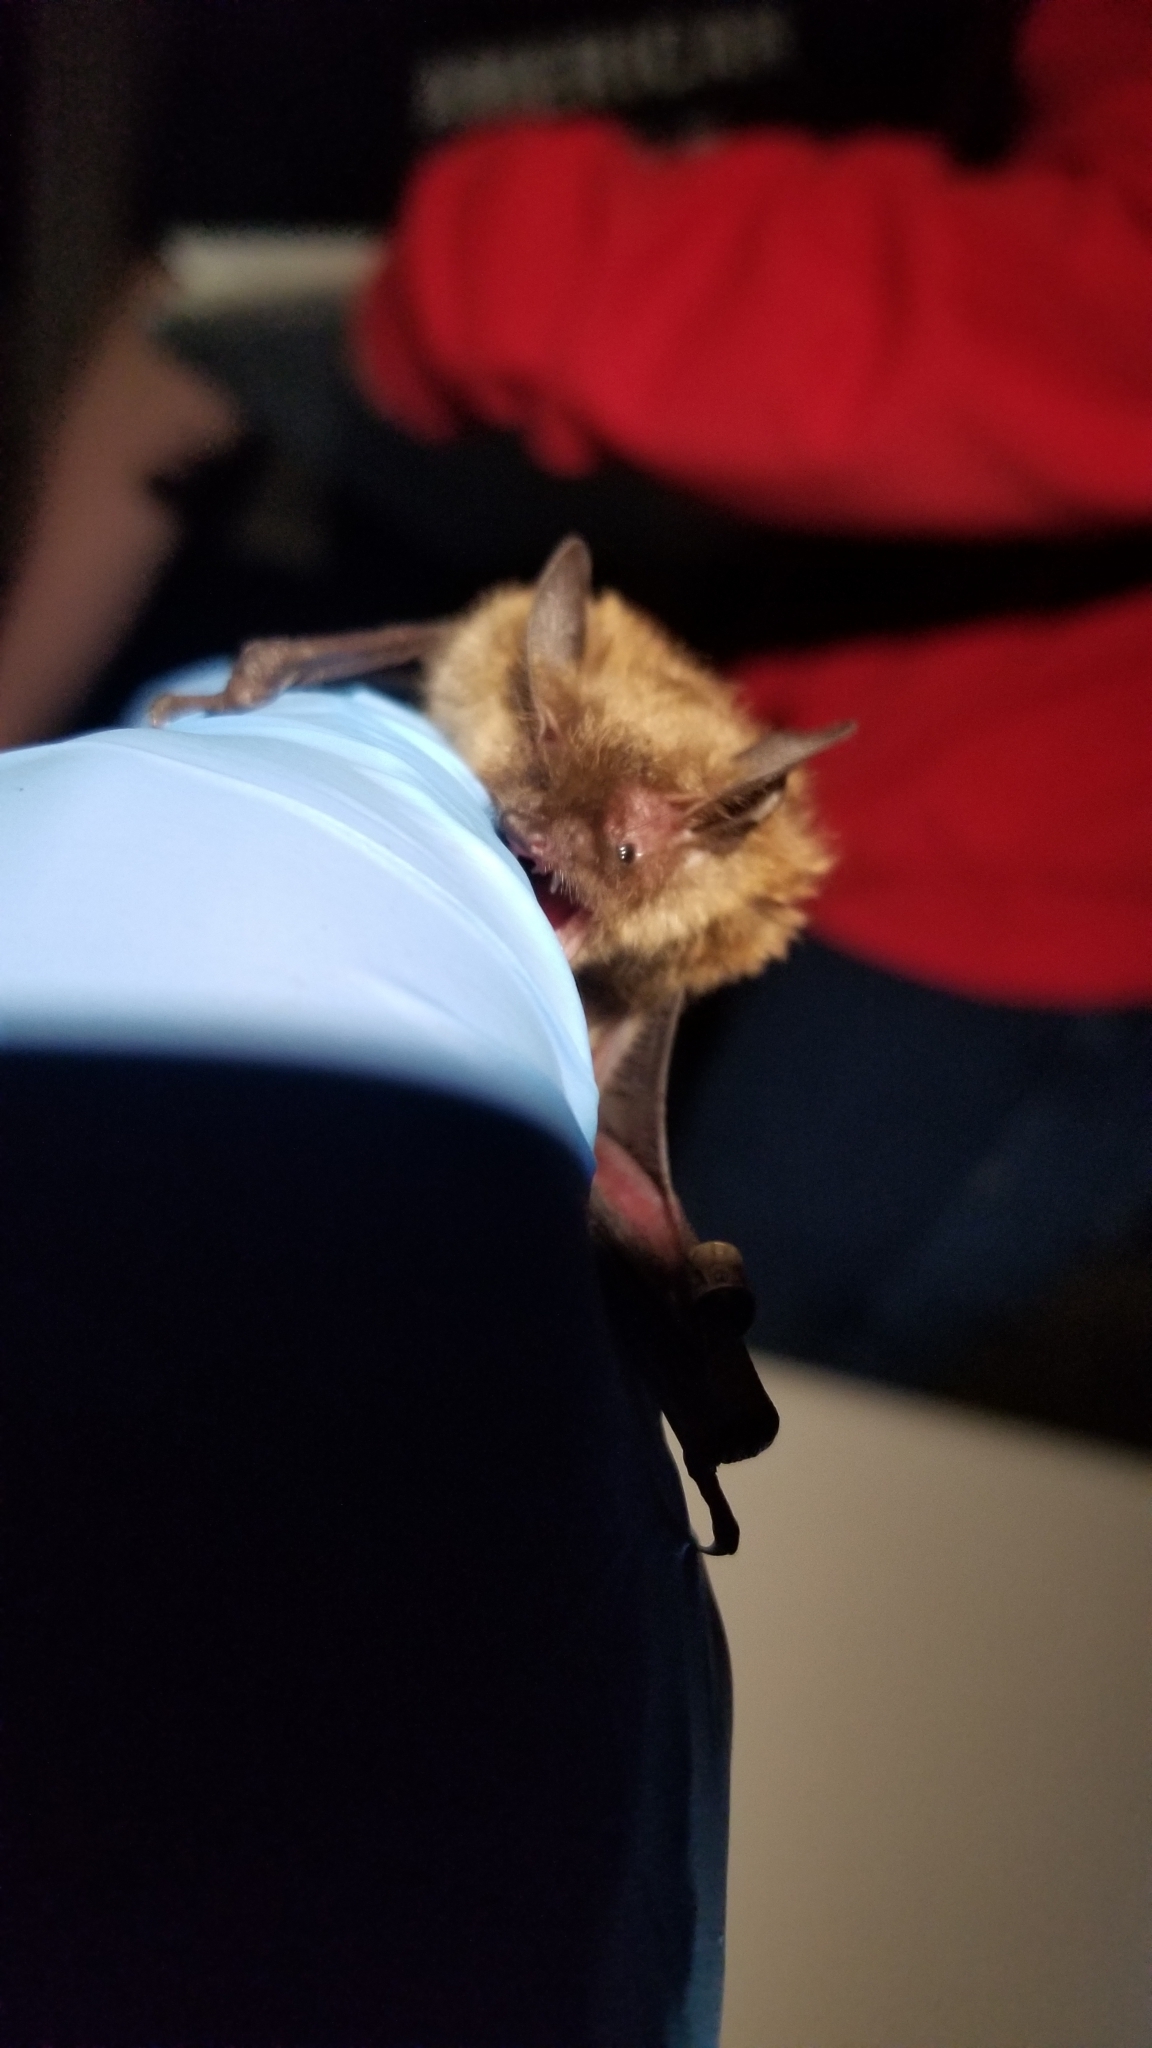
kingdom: Animalia
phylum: Chordata
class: Mammalia
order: Chiroptera
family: Vespertilionidae
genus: Myotis
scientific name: Myotis lucifugus
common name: Little brown bat
